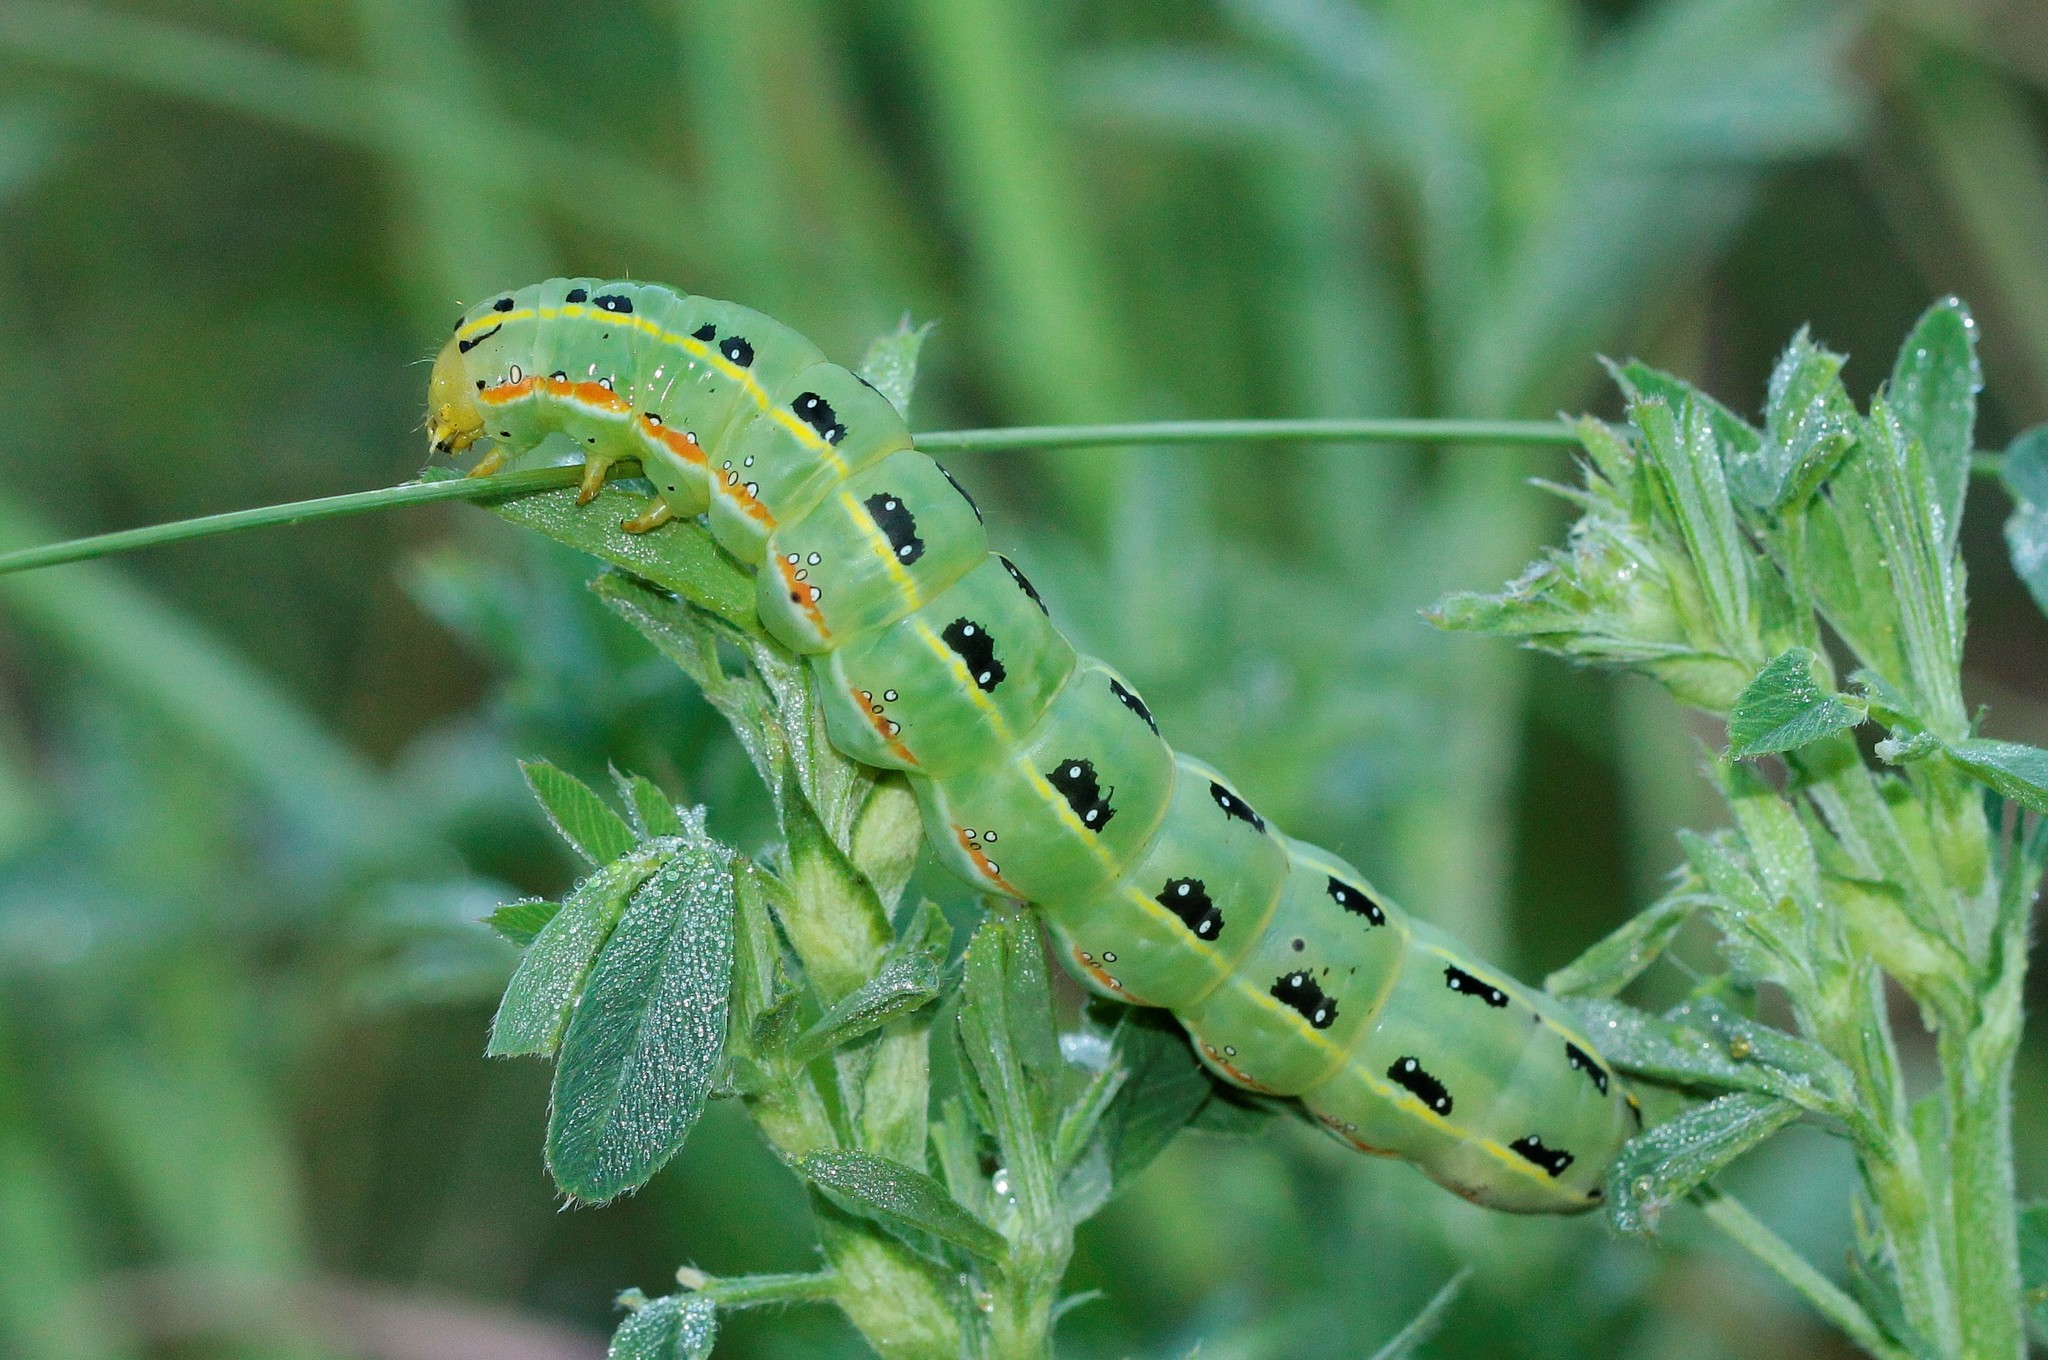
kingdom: Animalia
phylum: Arthropoda
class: Insecta
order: Lepidoptera
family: Noctuidae
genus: Xylena
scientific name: Xylena exsoleta
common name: Sword-grass
